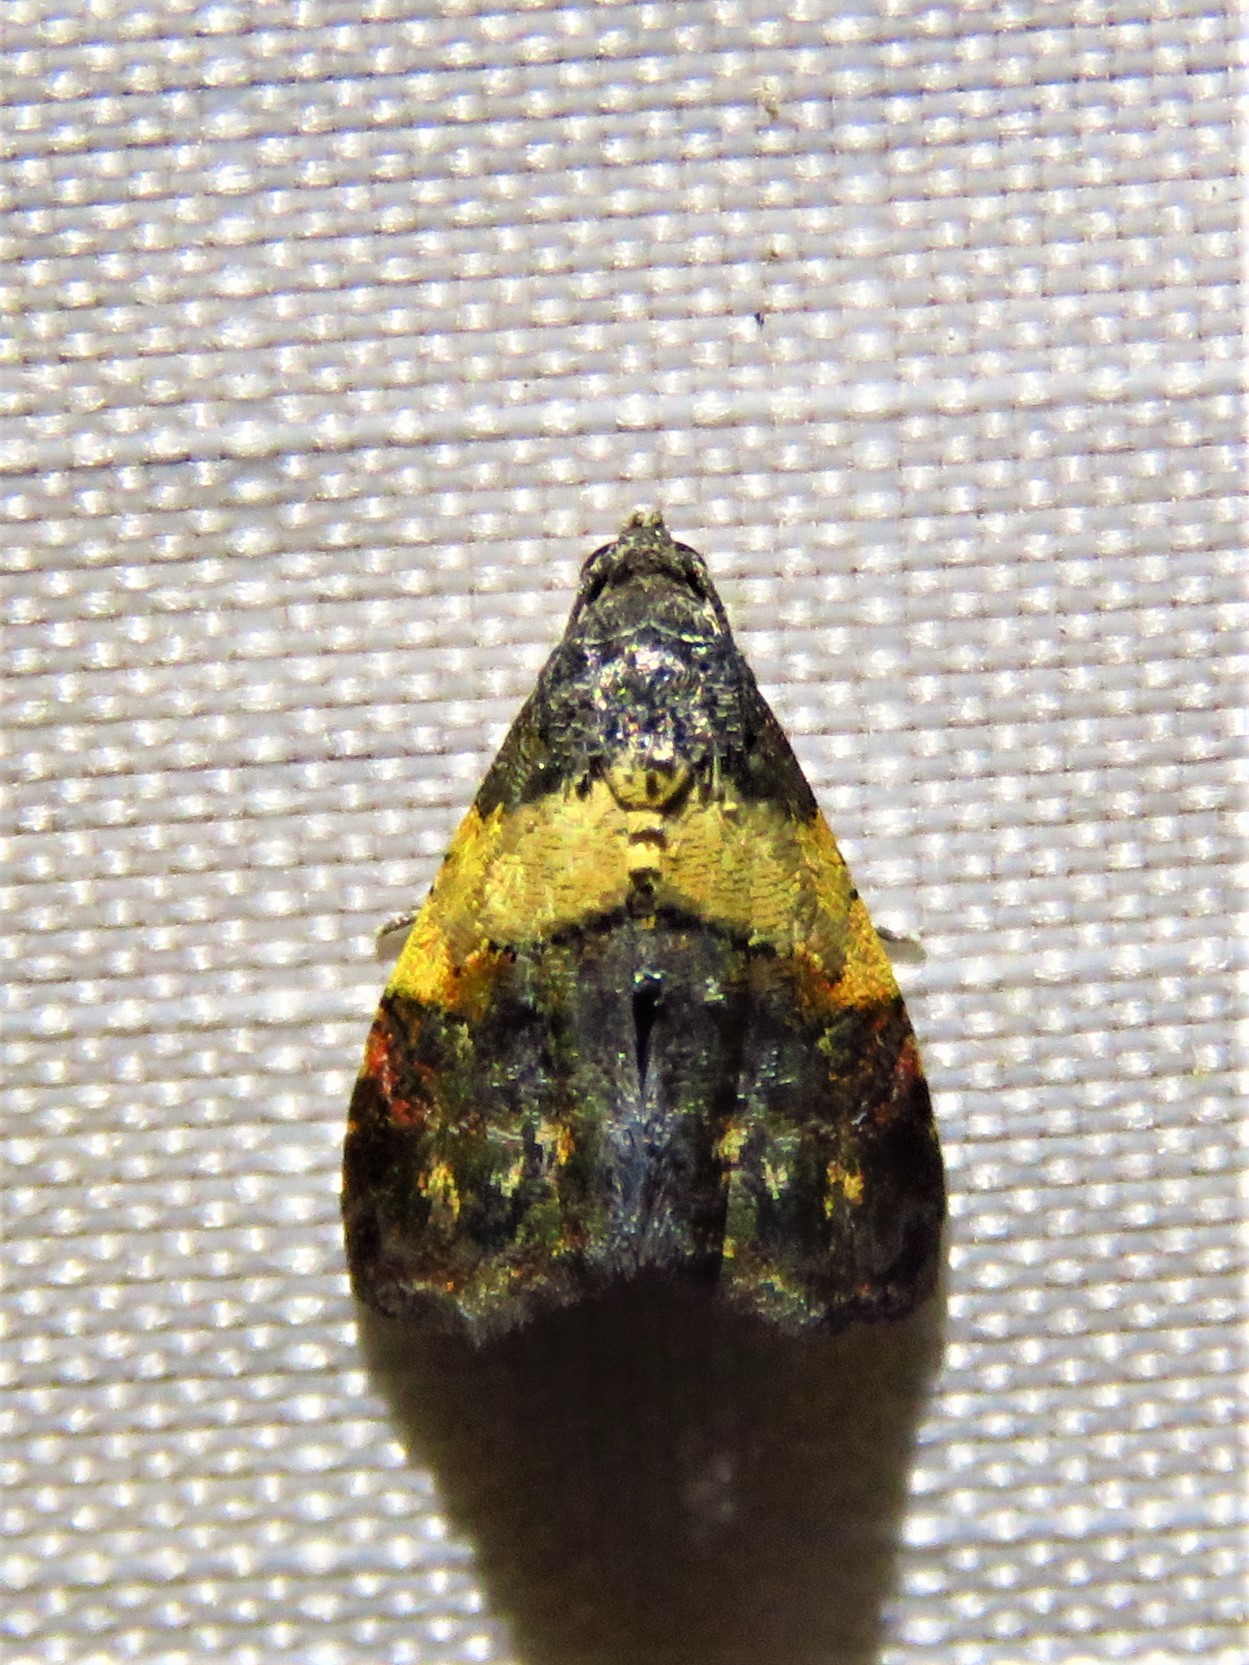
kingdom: Animalia
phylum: Arthropoda
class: Insecta
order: Lepidoptera
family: Noctuidae
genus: Tripudia
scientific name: Tripudia flavofasciata
